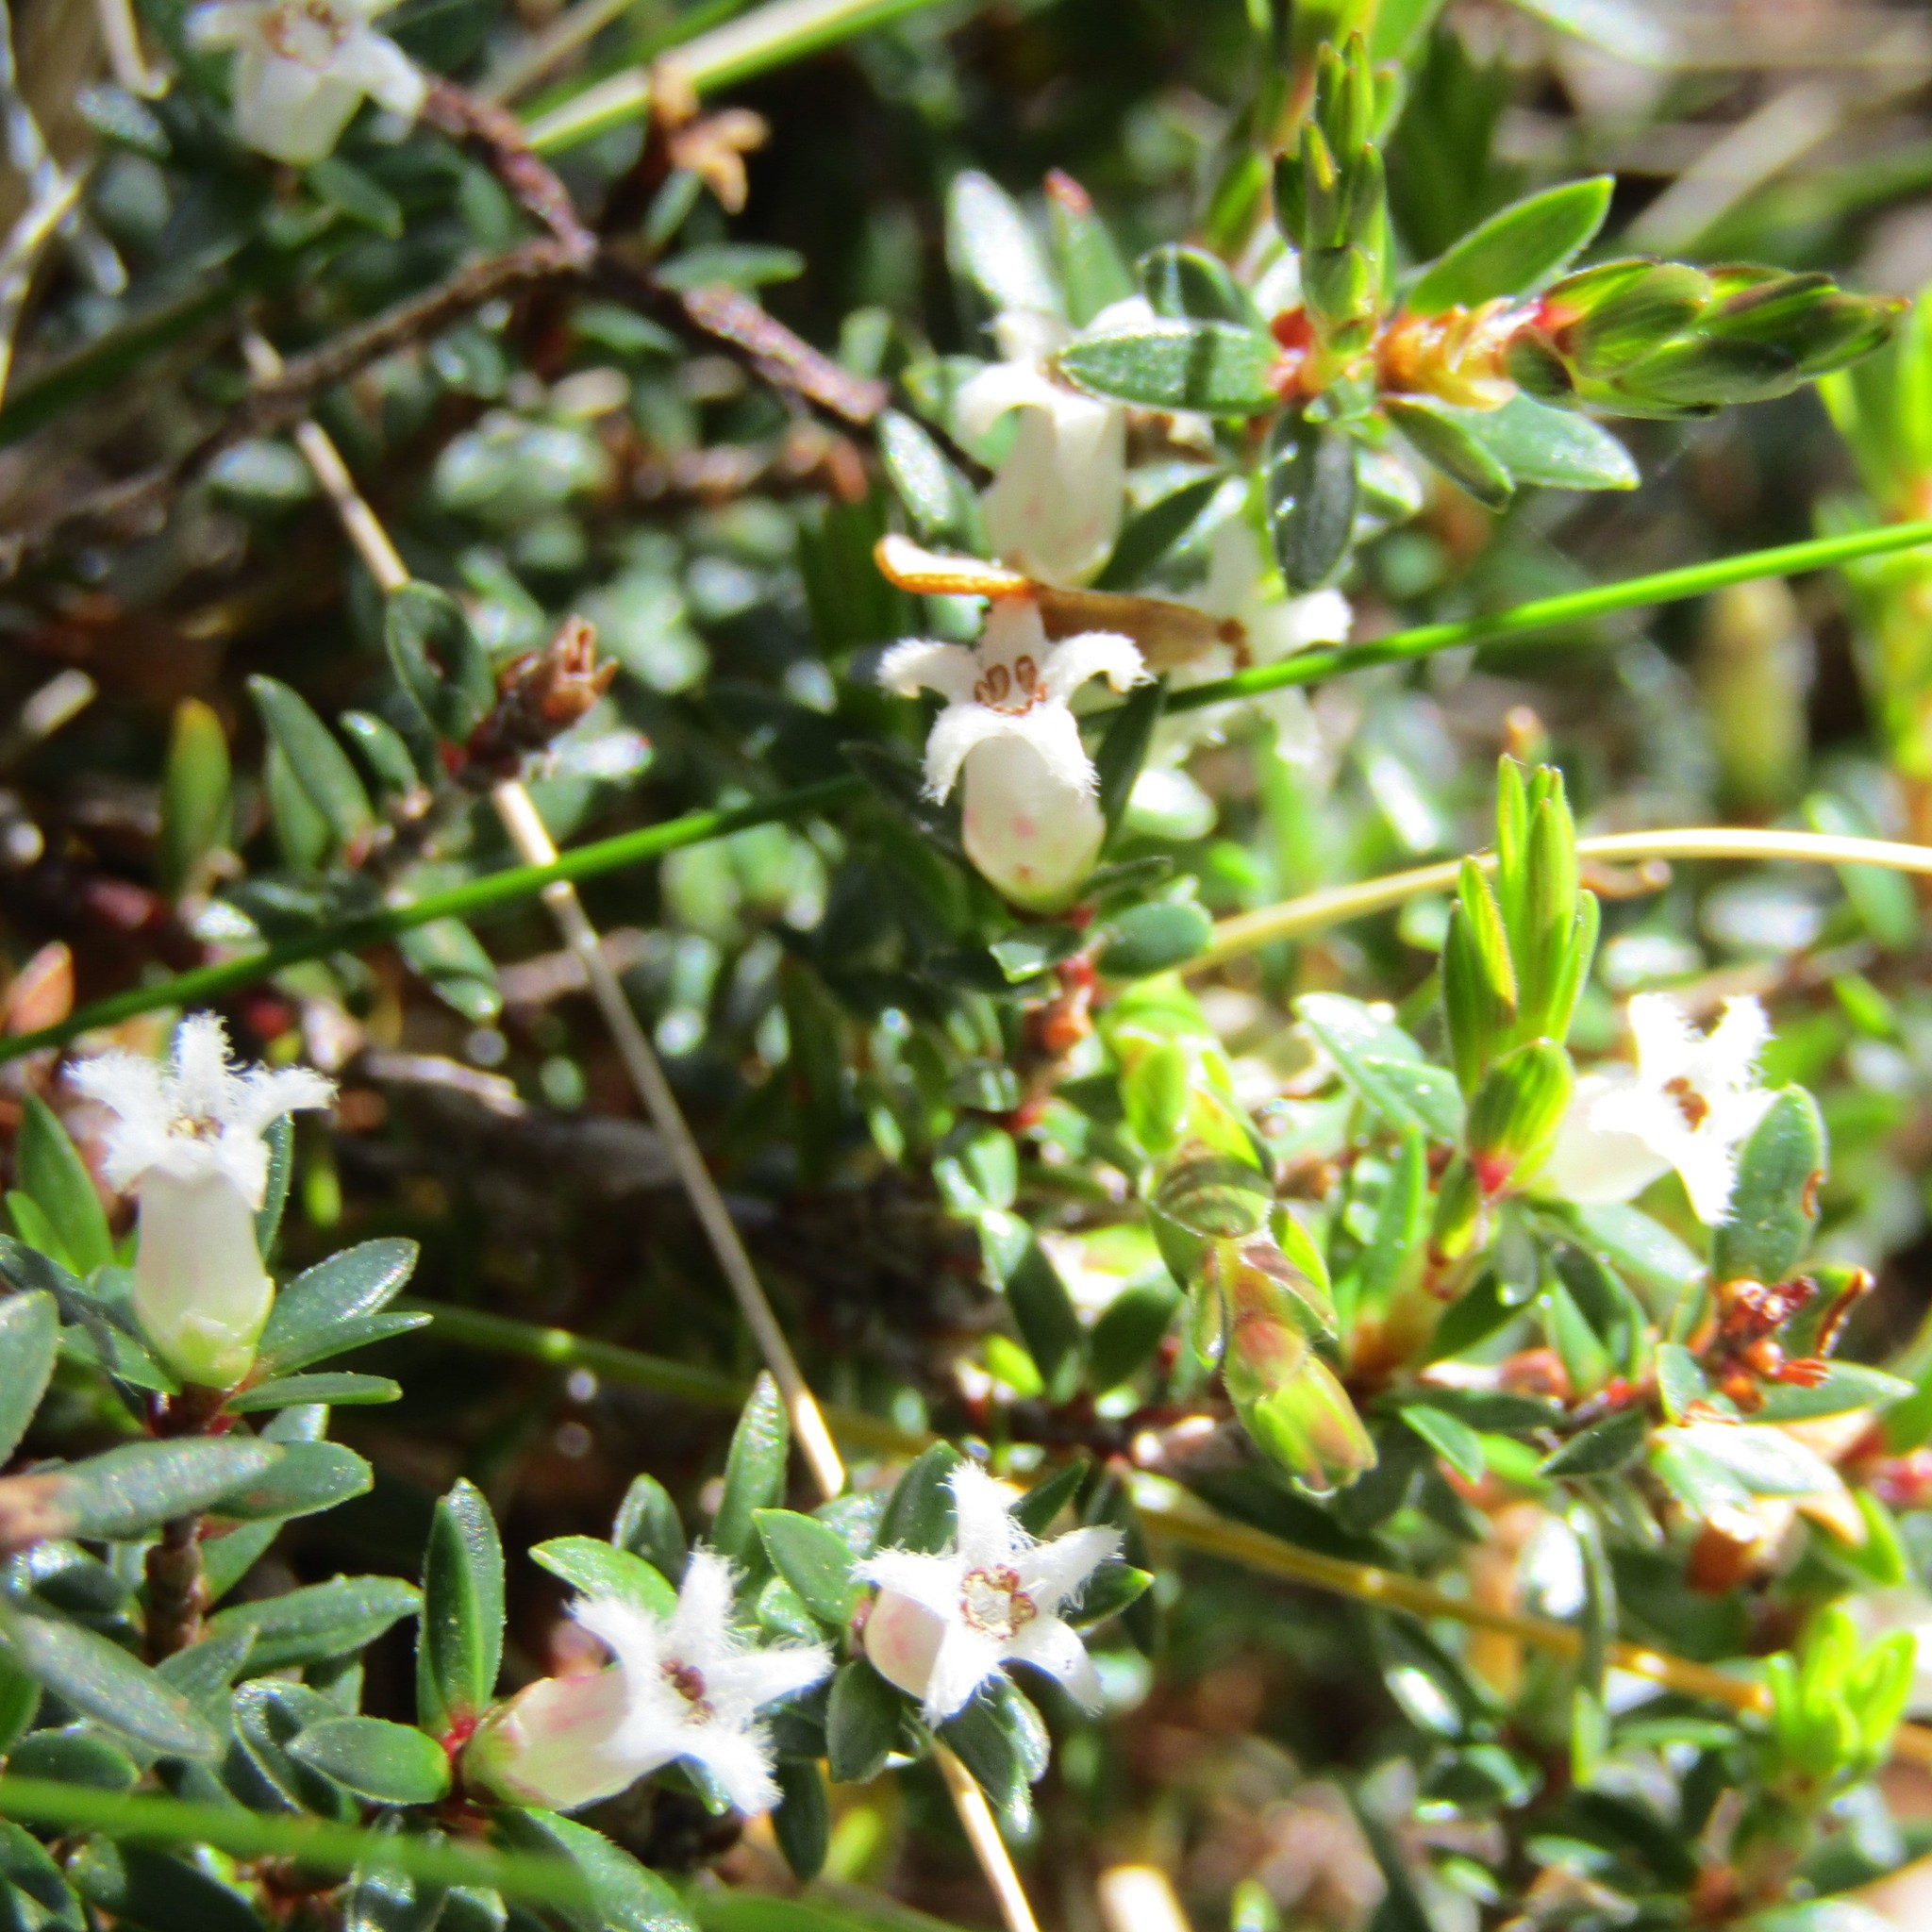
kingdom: Plantae
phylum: Tracheophyta
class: Magnoliopsida
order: Ericales
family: Ericaceae
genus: Pentachondra
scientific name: Pentachondra pumila
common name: Carpet-heath
